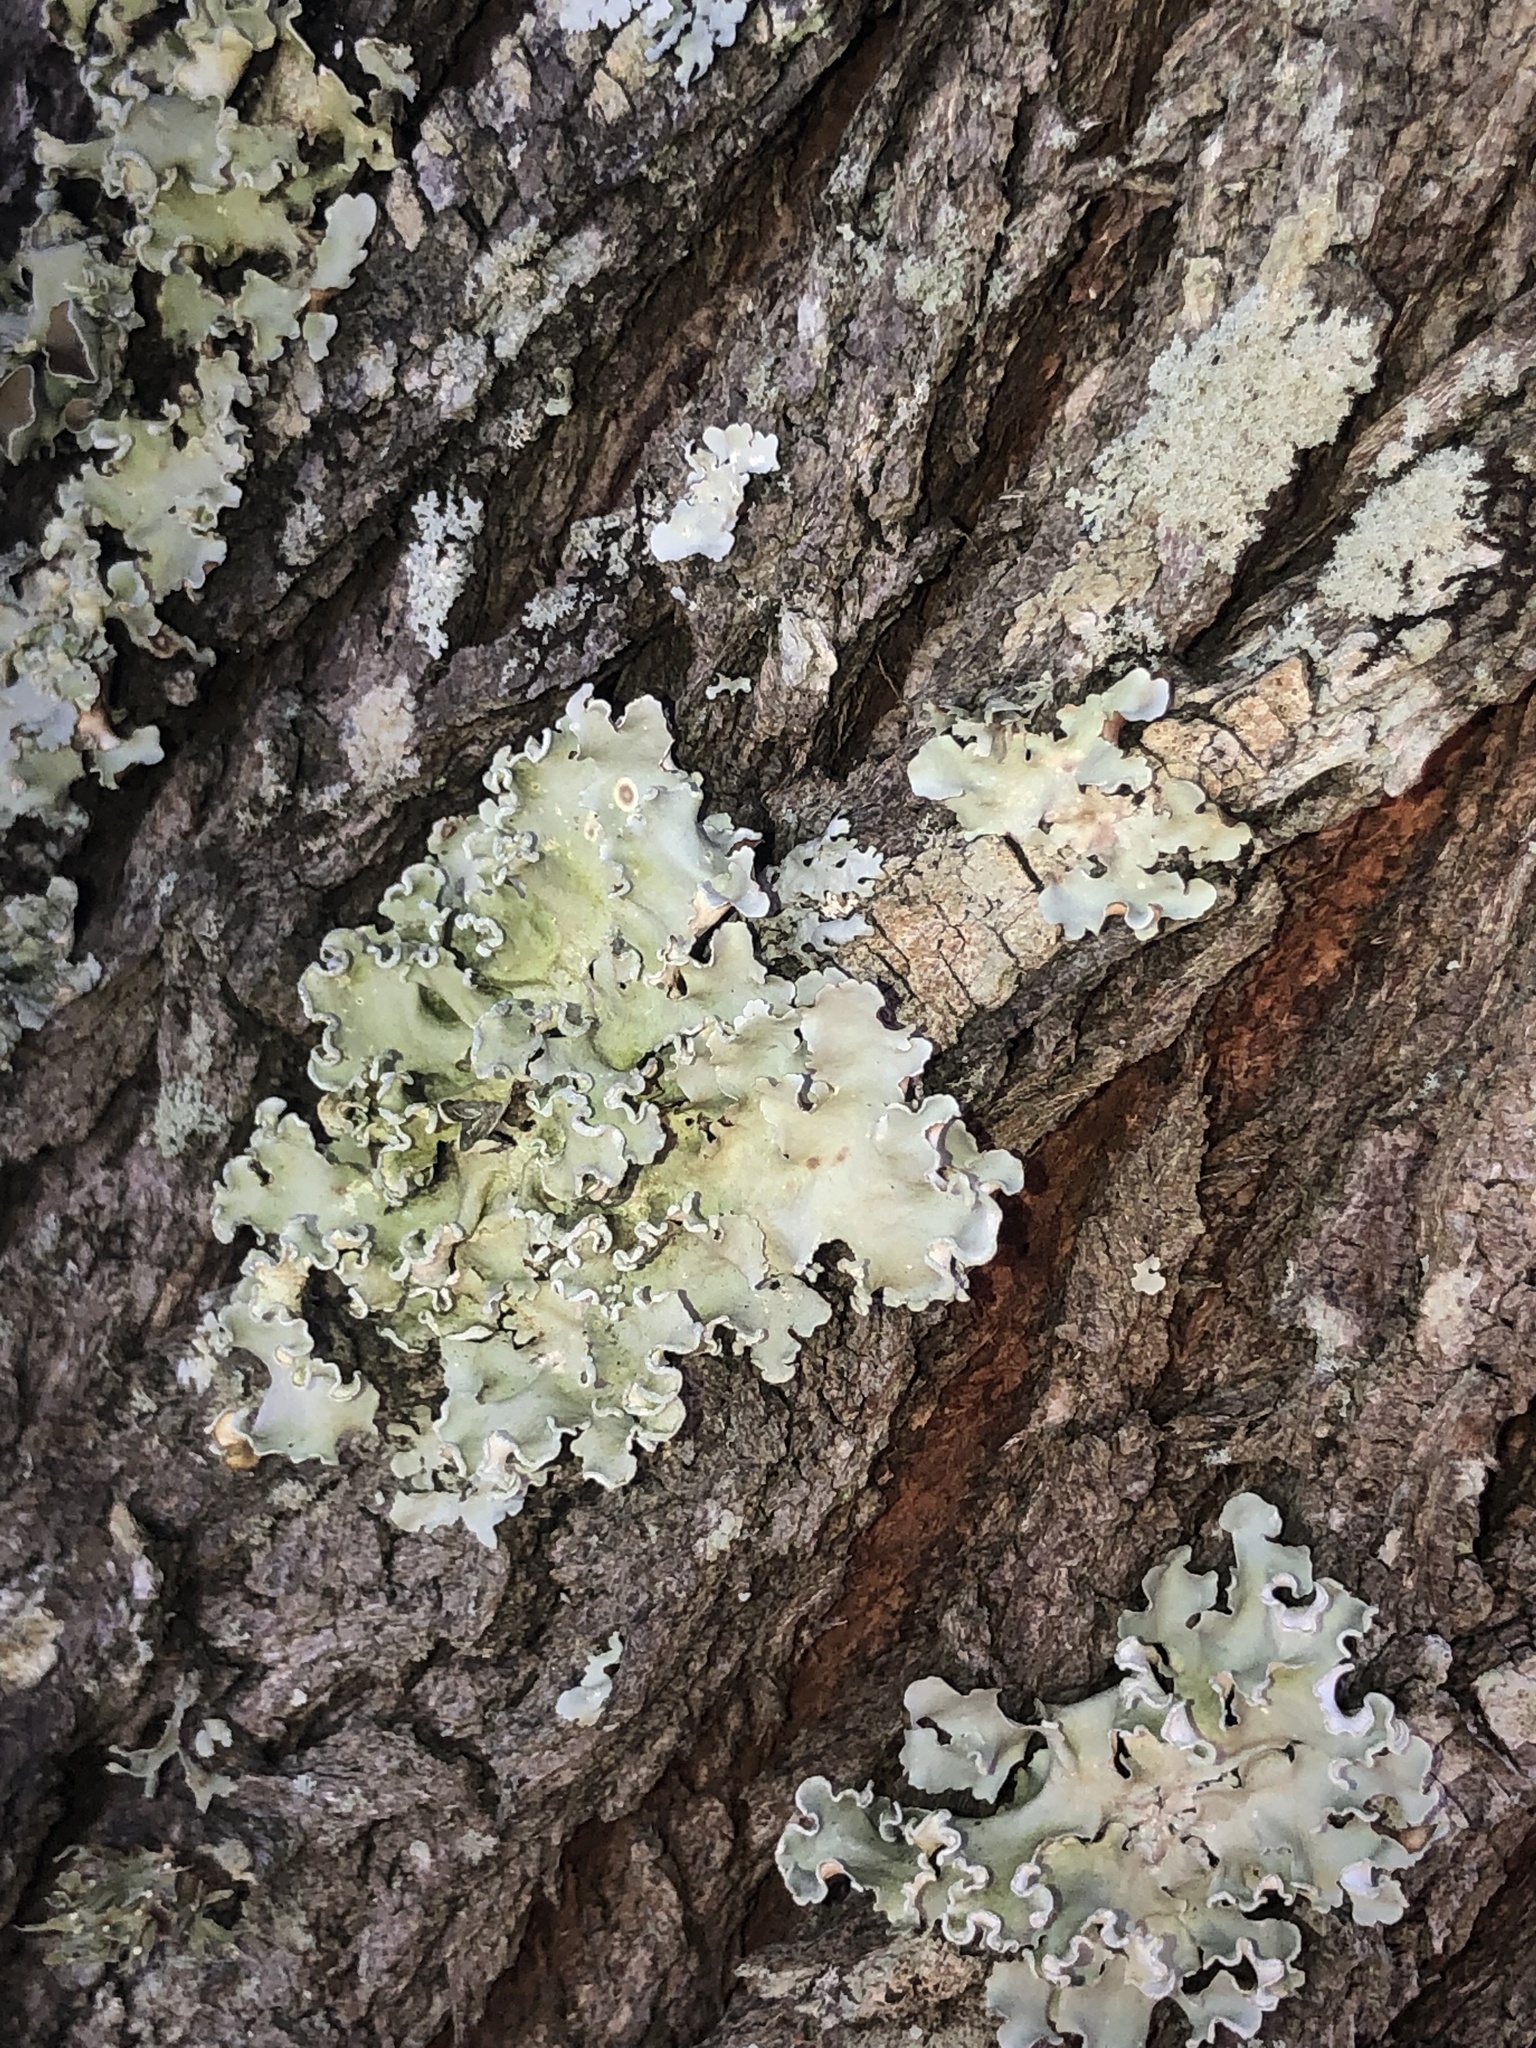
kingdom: Fungi
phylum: Ascomycota
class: Lecanoromycetes
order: Lecanorales
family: Parmeliaceae
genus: Parmotrema
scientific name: Parmotrema austrosinense
